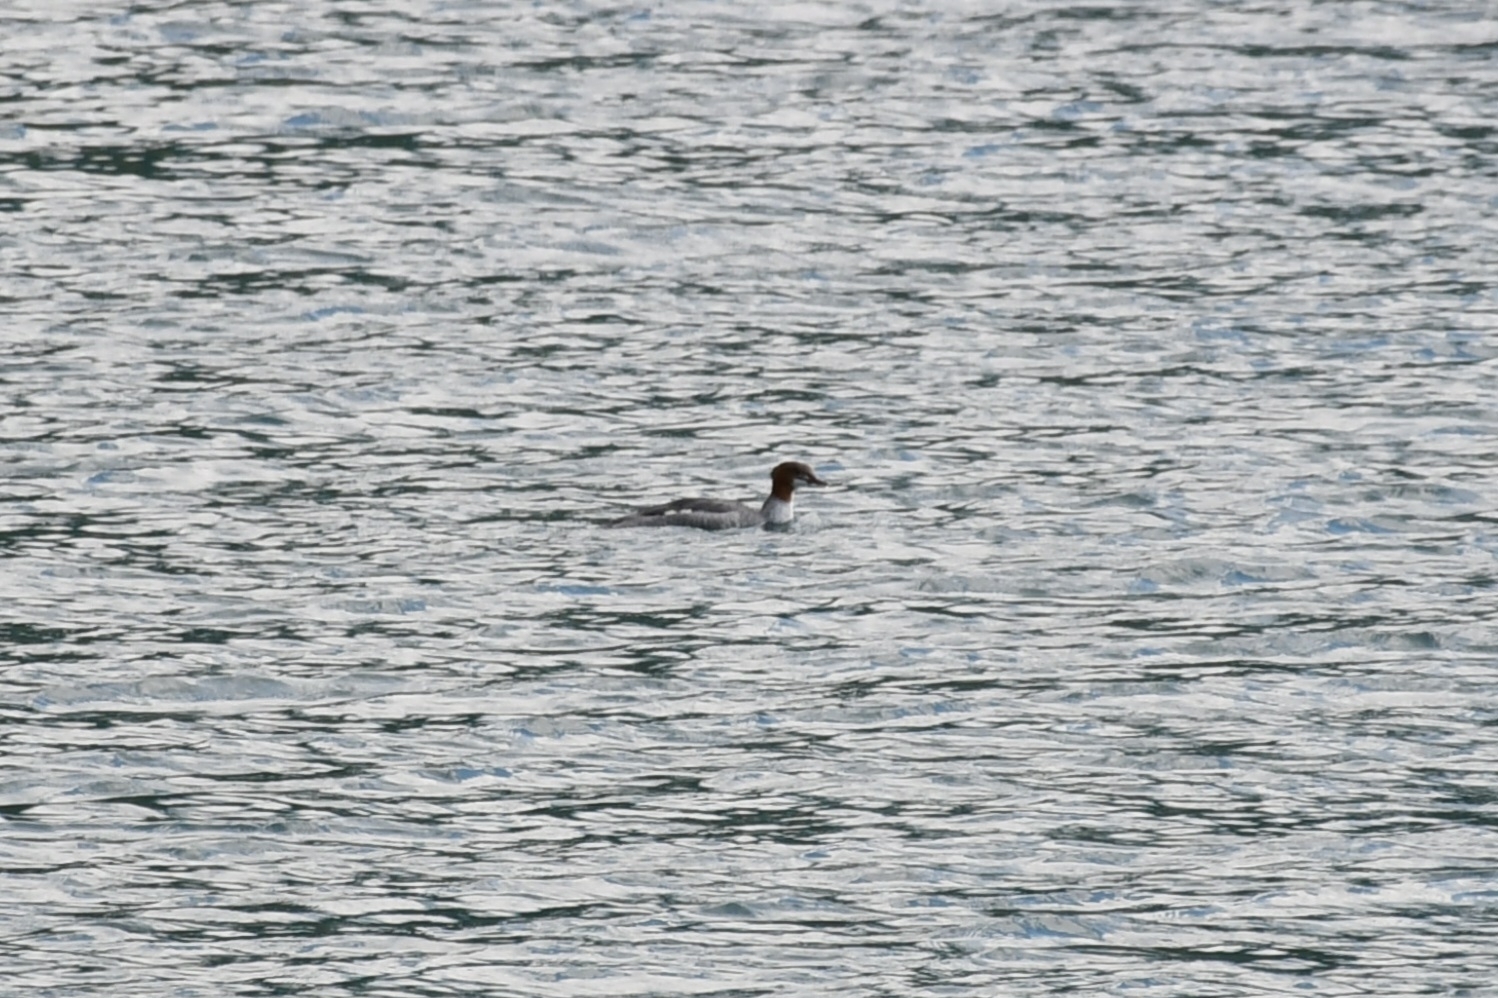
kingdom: Animalia
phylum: Chordata
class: Aves
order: Anseriformes
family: Anatidae
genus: Mergus
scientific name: Mergus merganser
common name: Common merganser
